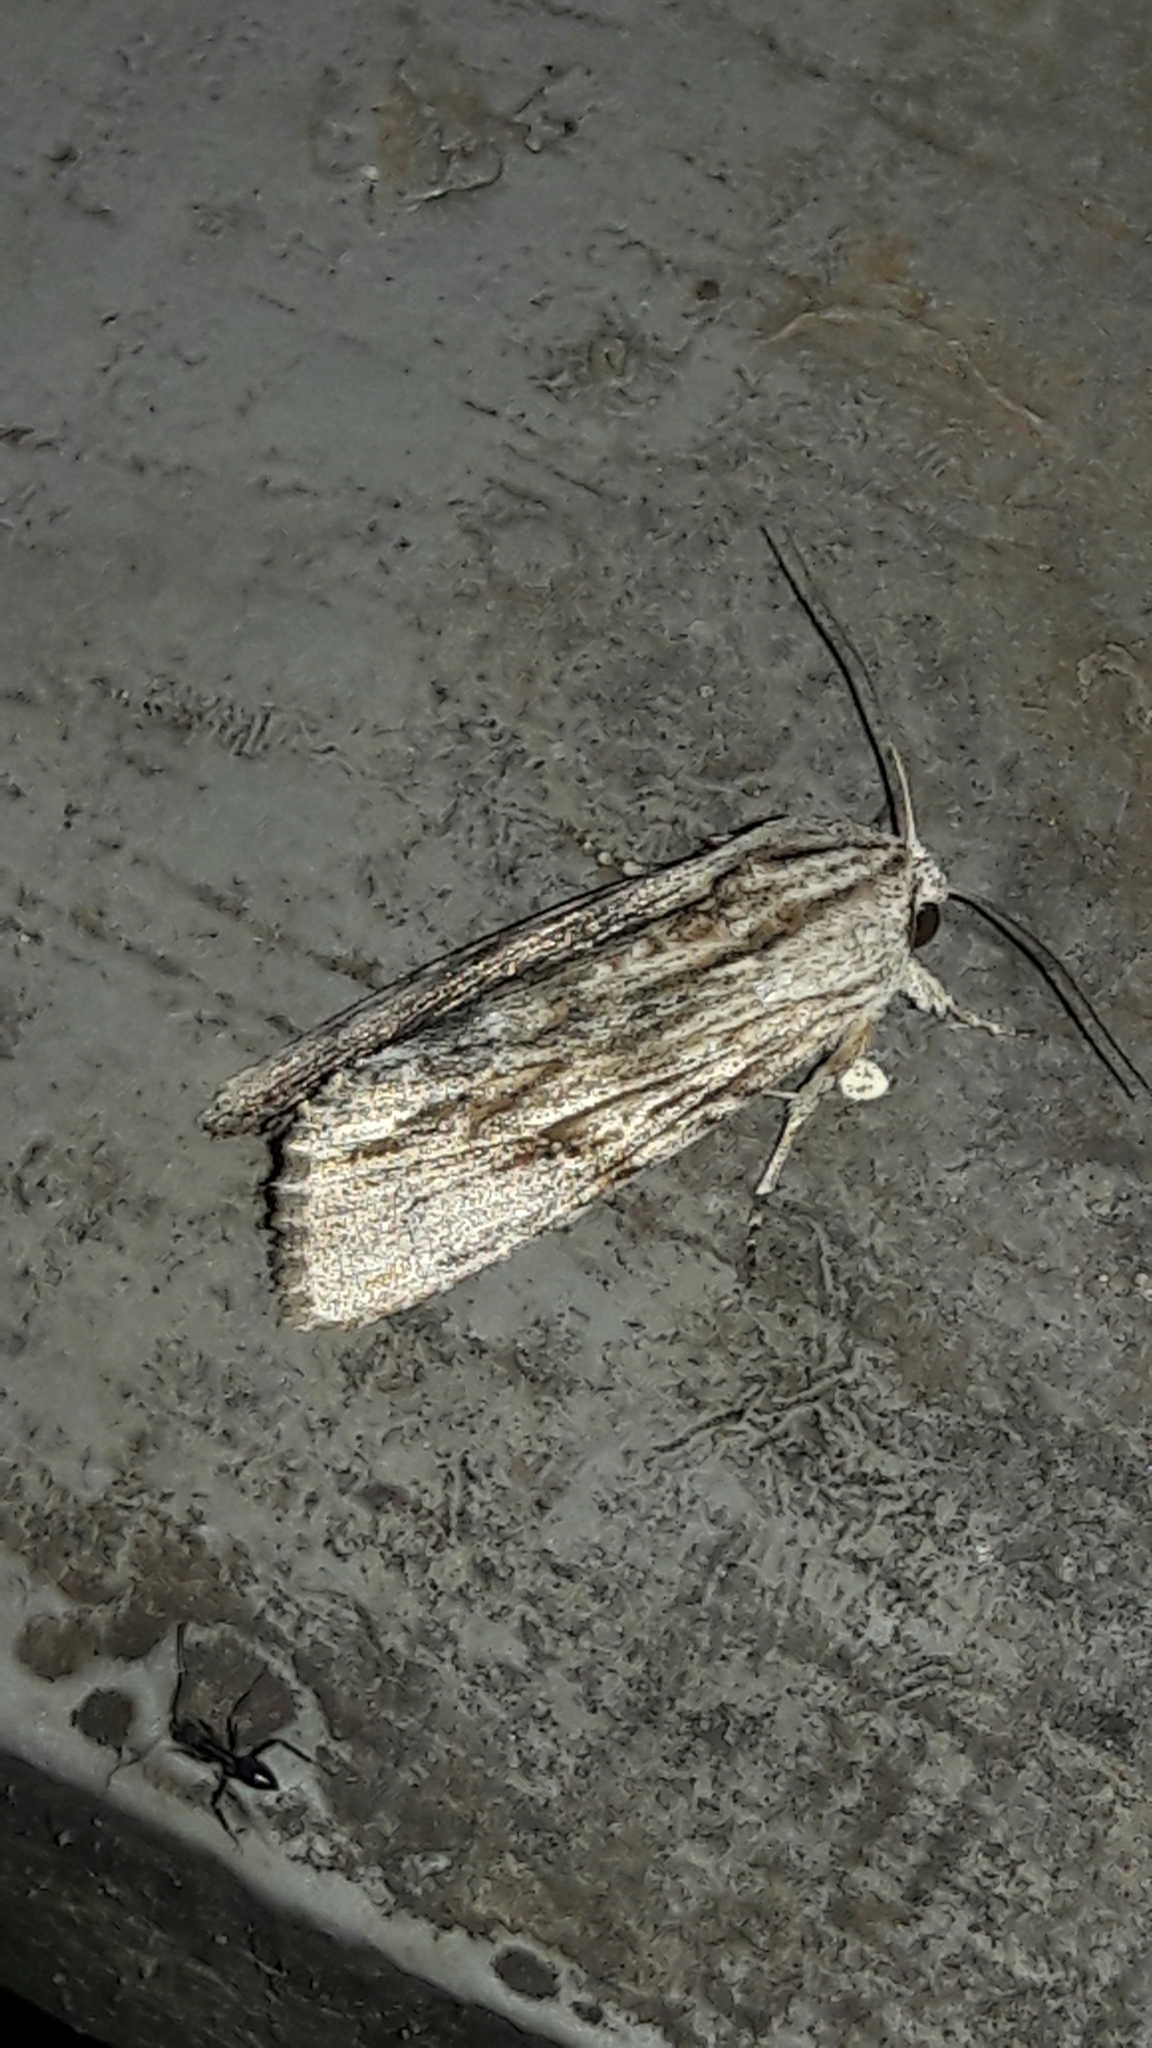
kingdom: Animalia
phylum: Arthropoda
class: Insecta
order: Lepidoptera
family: Noctuidae
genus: Spodoptera
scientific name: Spodoptera eridania
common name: Southern army worm
